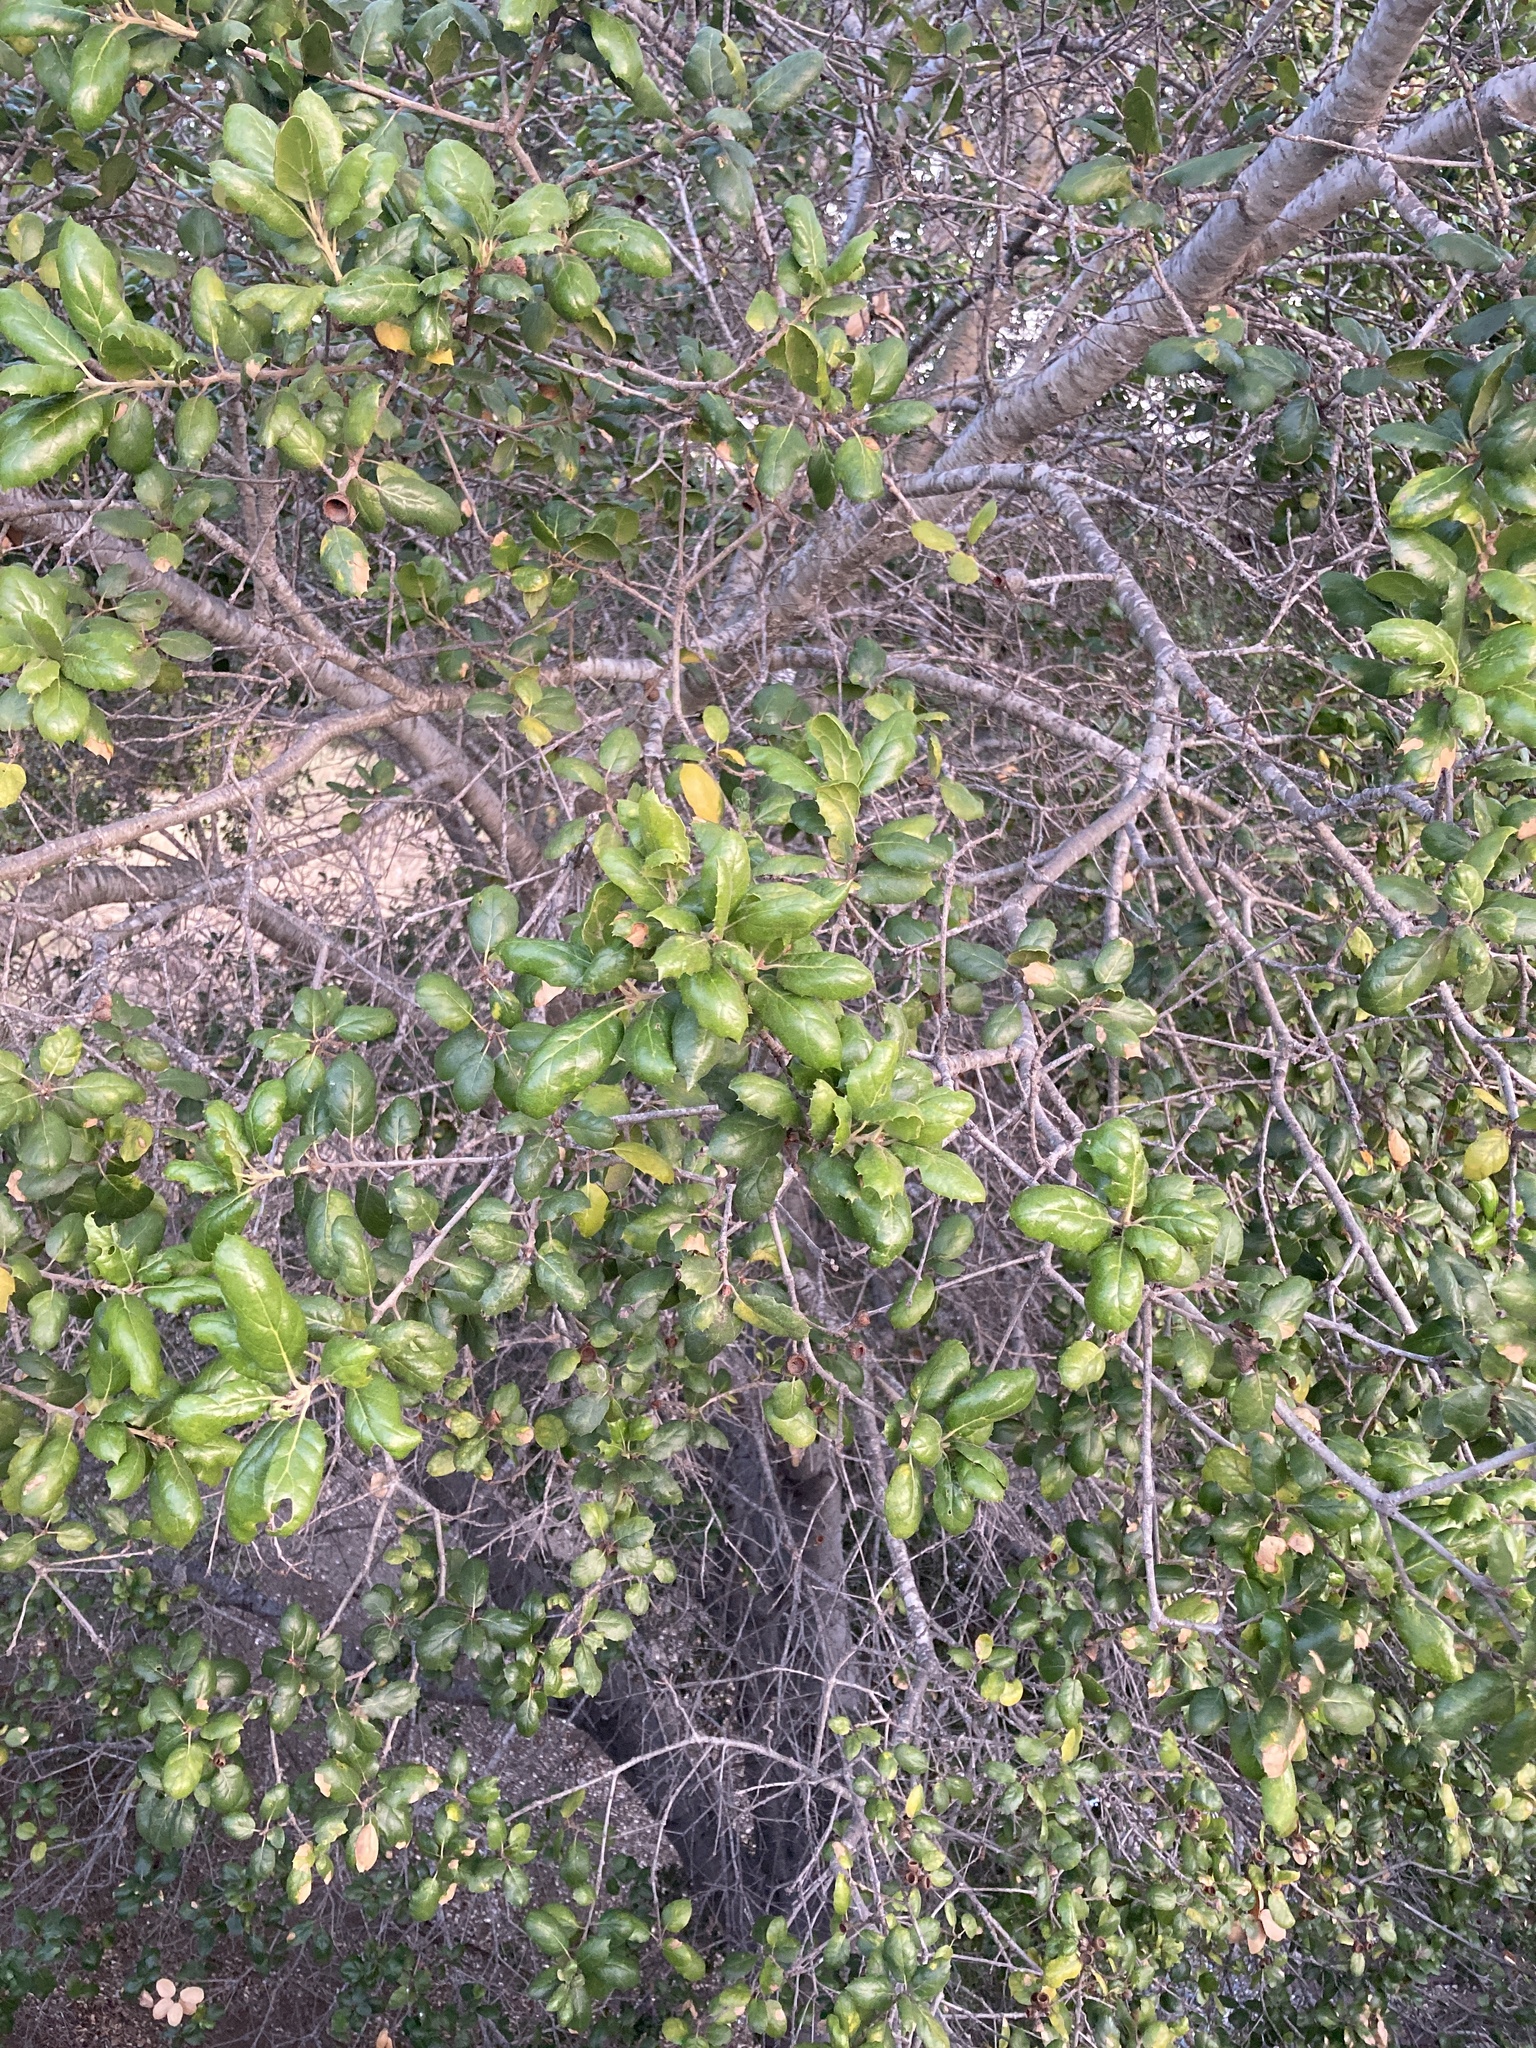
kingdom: Plantae
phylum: Tracheophyta
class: Magnoliopsida
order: Fagales
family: Fagaceae
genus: Quercus
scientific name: Quercus agrifolia
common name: California live oak
